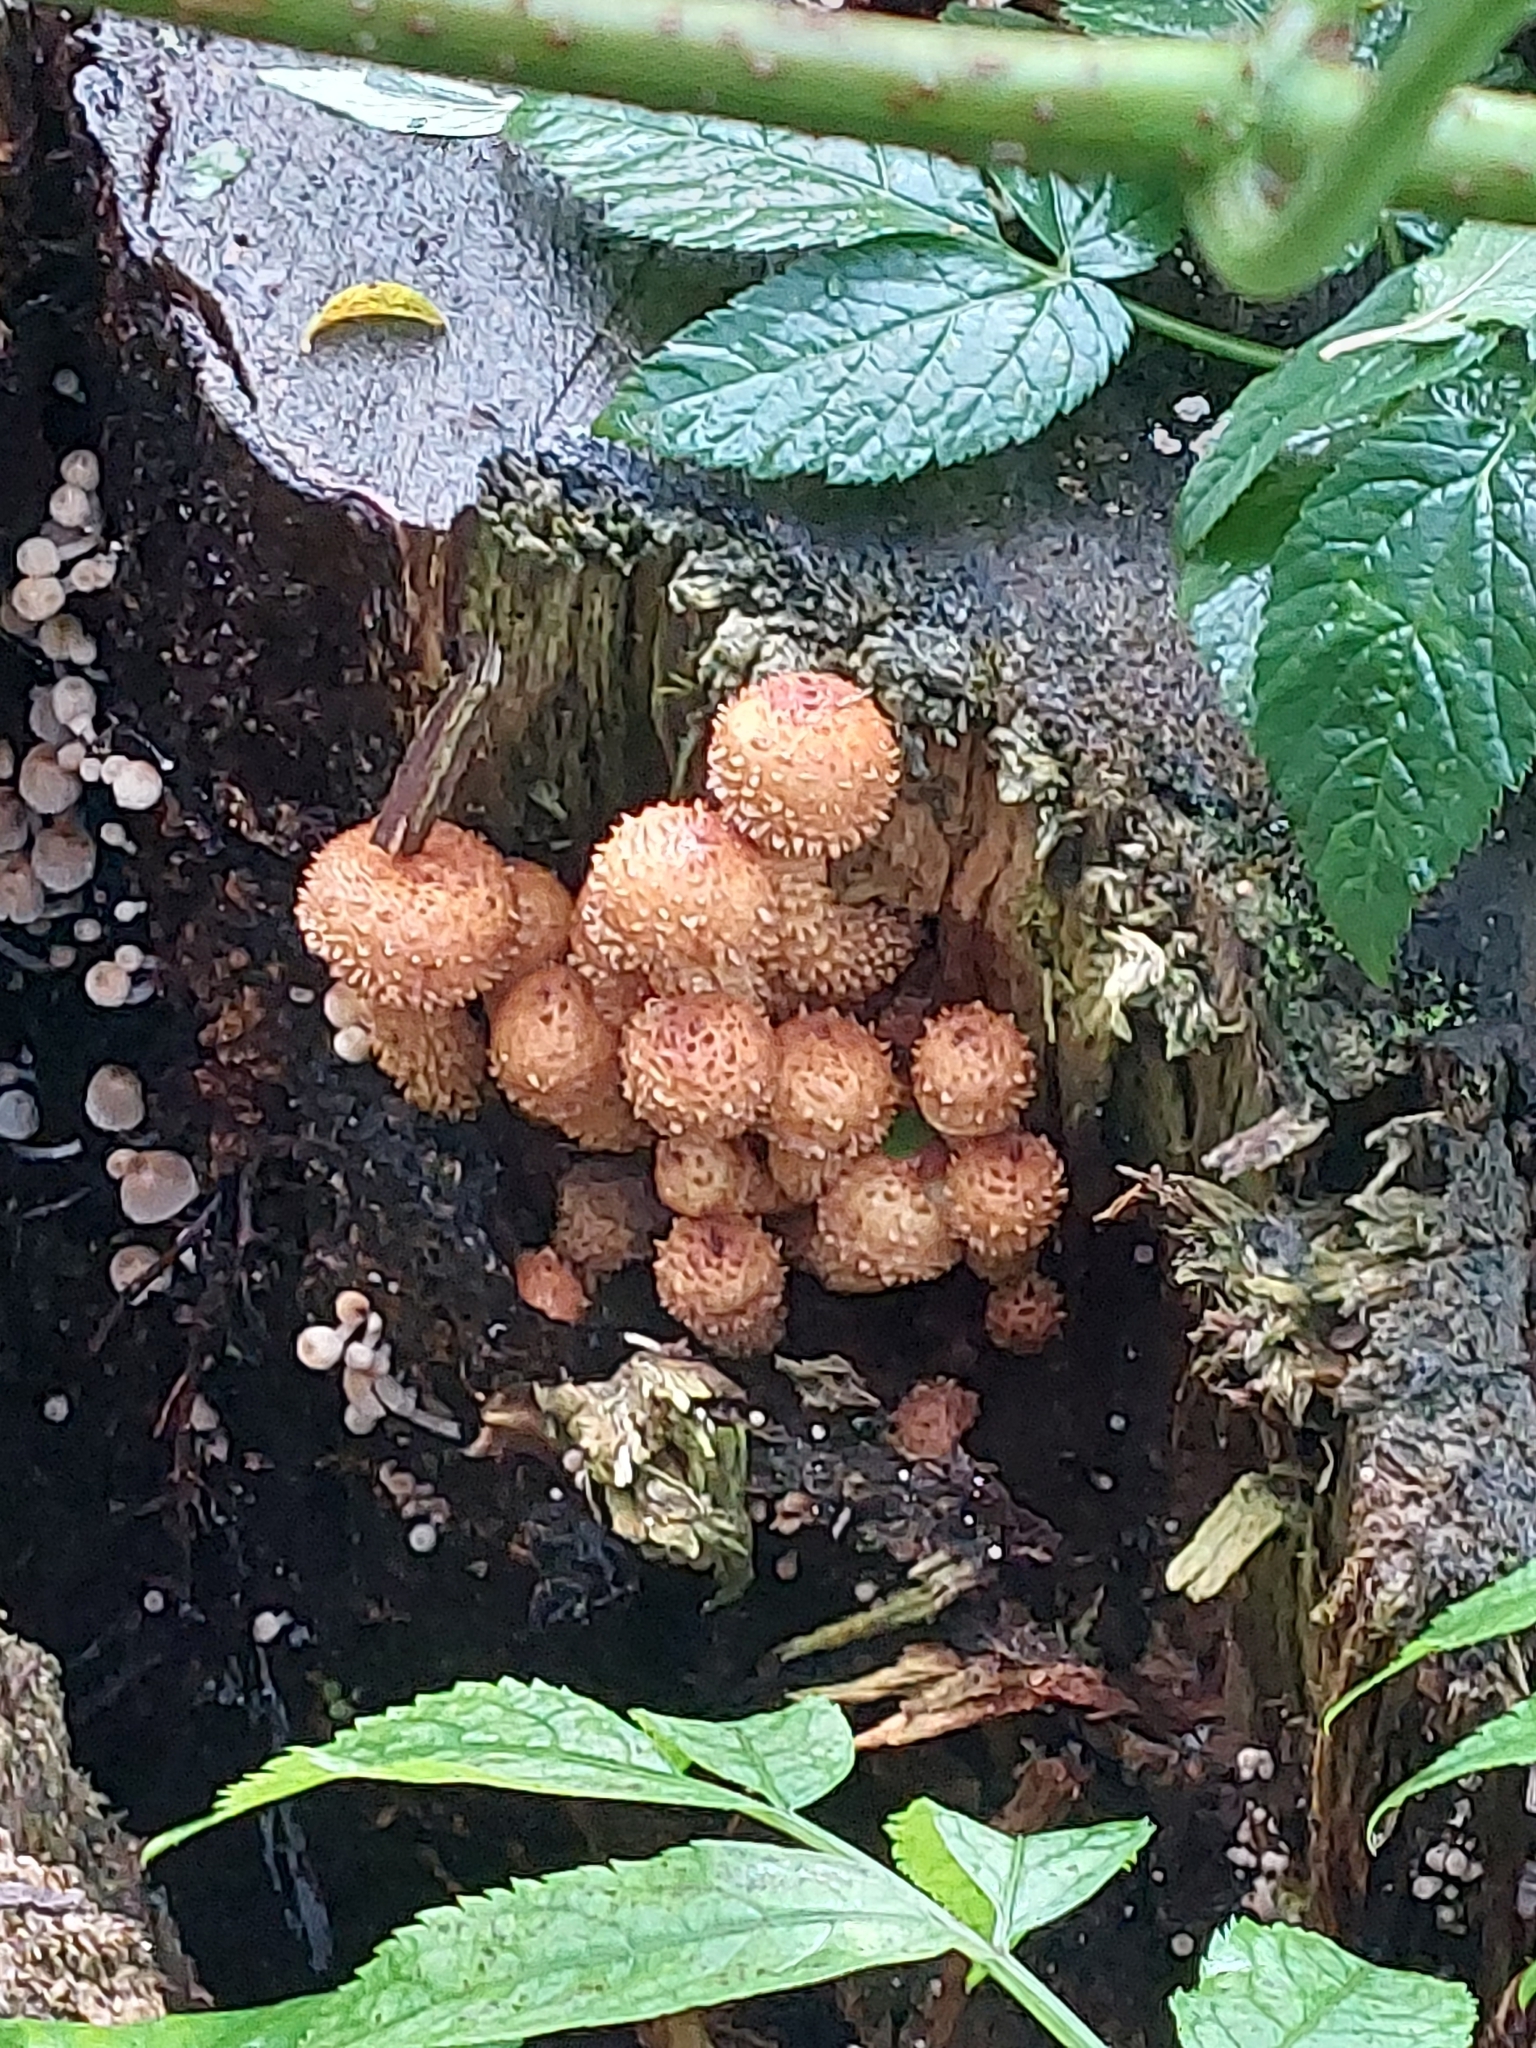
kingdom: Fungi
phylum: Basidiomycota
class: Agaricomycetes
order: Agaricales
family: Strophariaceae
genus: Pholiota
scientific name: Pholiota squarrosa
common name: Shaggy pholiota
